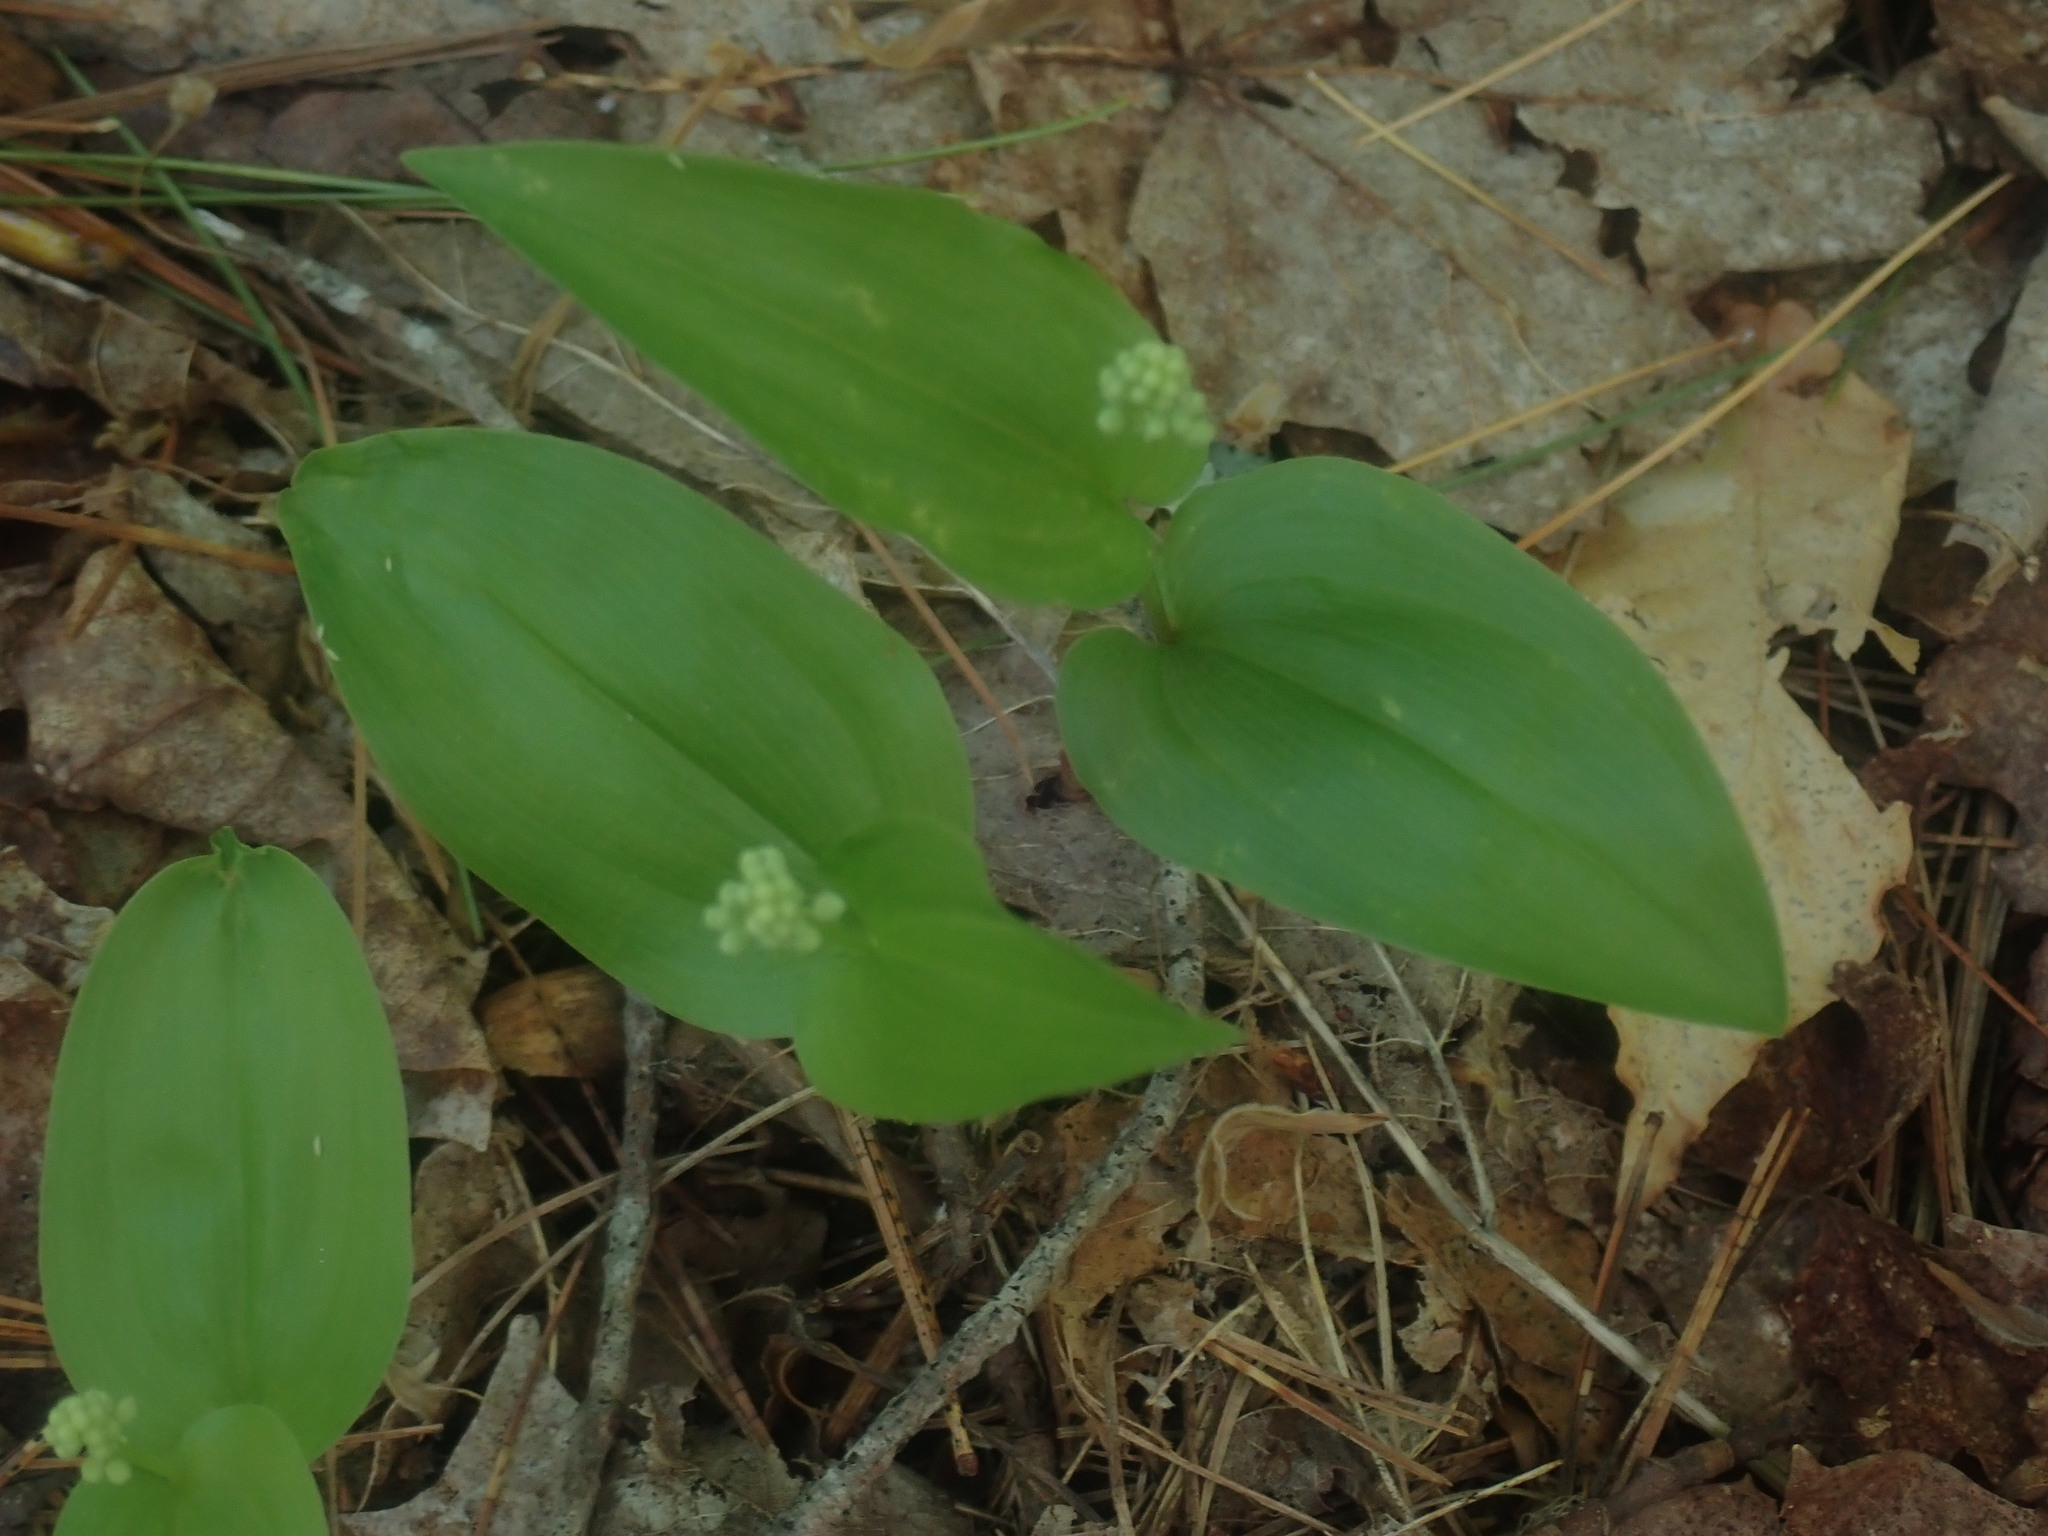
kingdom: Plantae
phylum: Tracheophyta
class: Liliopsida
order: Asparagales
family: Asparagaceae
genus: Maianthemum
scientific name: Maianthemum canadense
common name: False lily-of-the-valley
